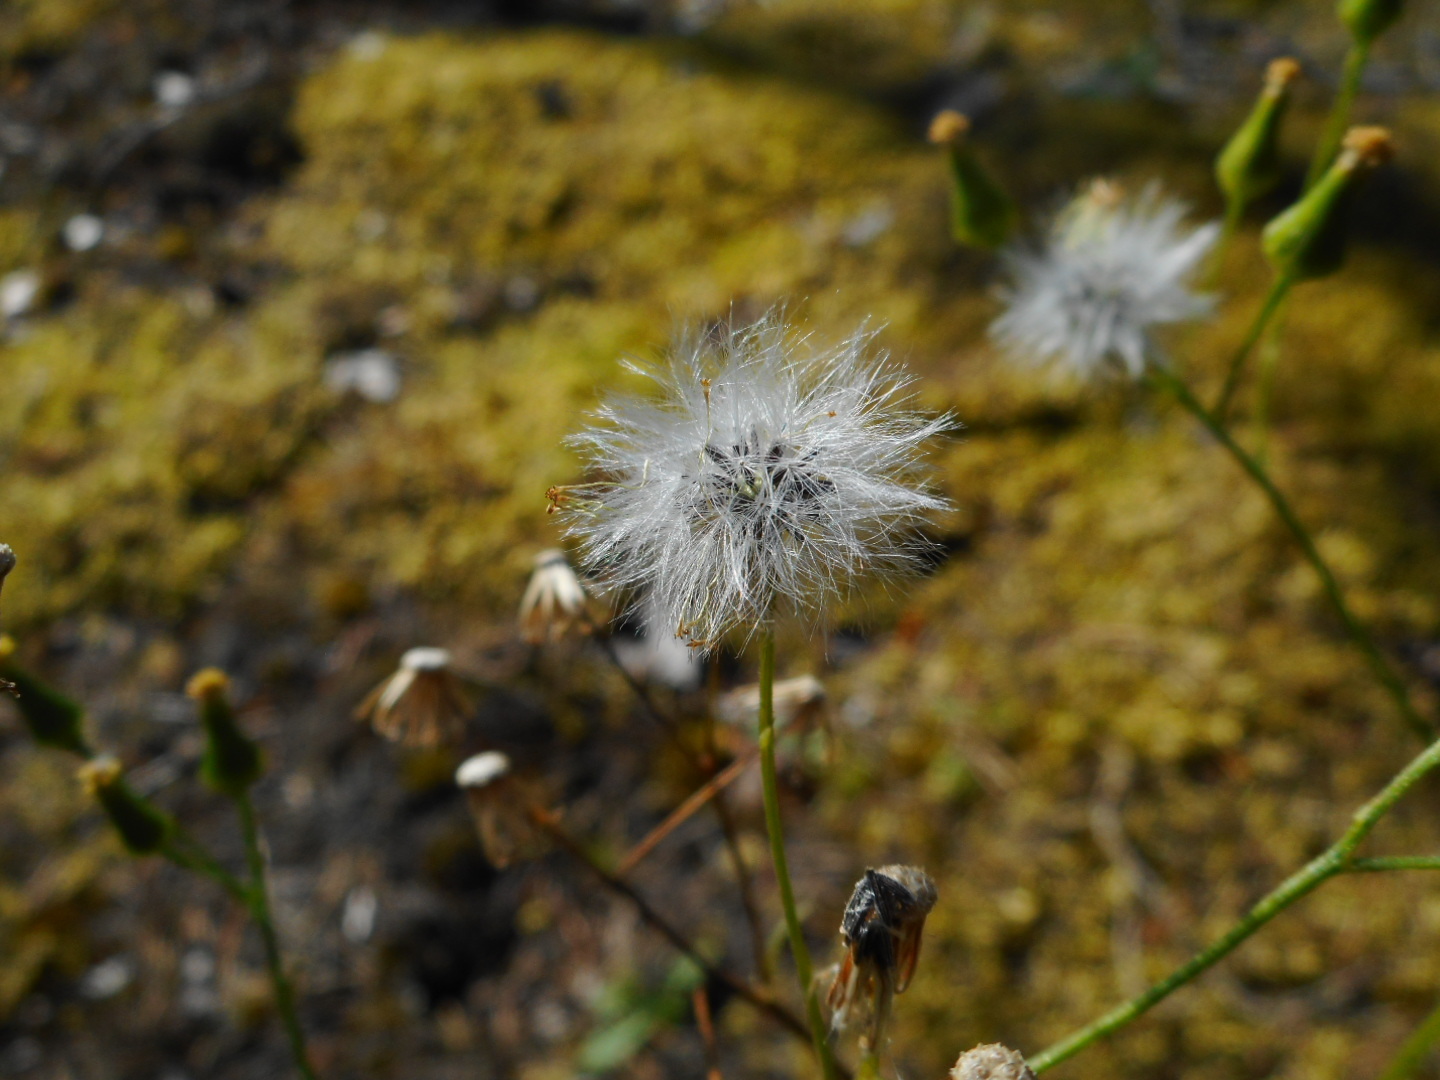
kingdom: Plantae
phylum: Tracheophyta
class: Magnoliopsida
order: Asterales
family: Asteraceae
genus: Senecio
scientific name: Senecio vulgaris
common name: Old-man-in-the-spring
